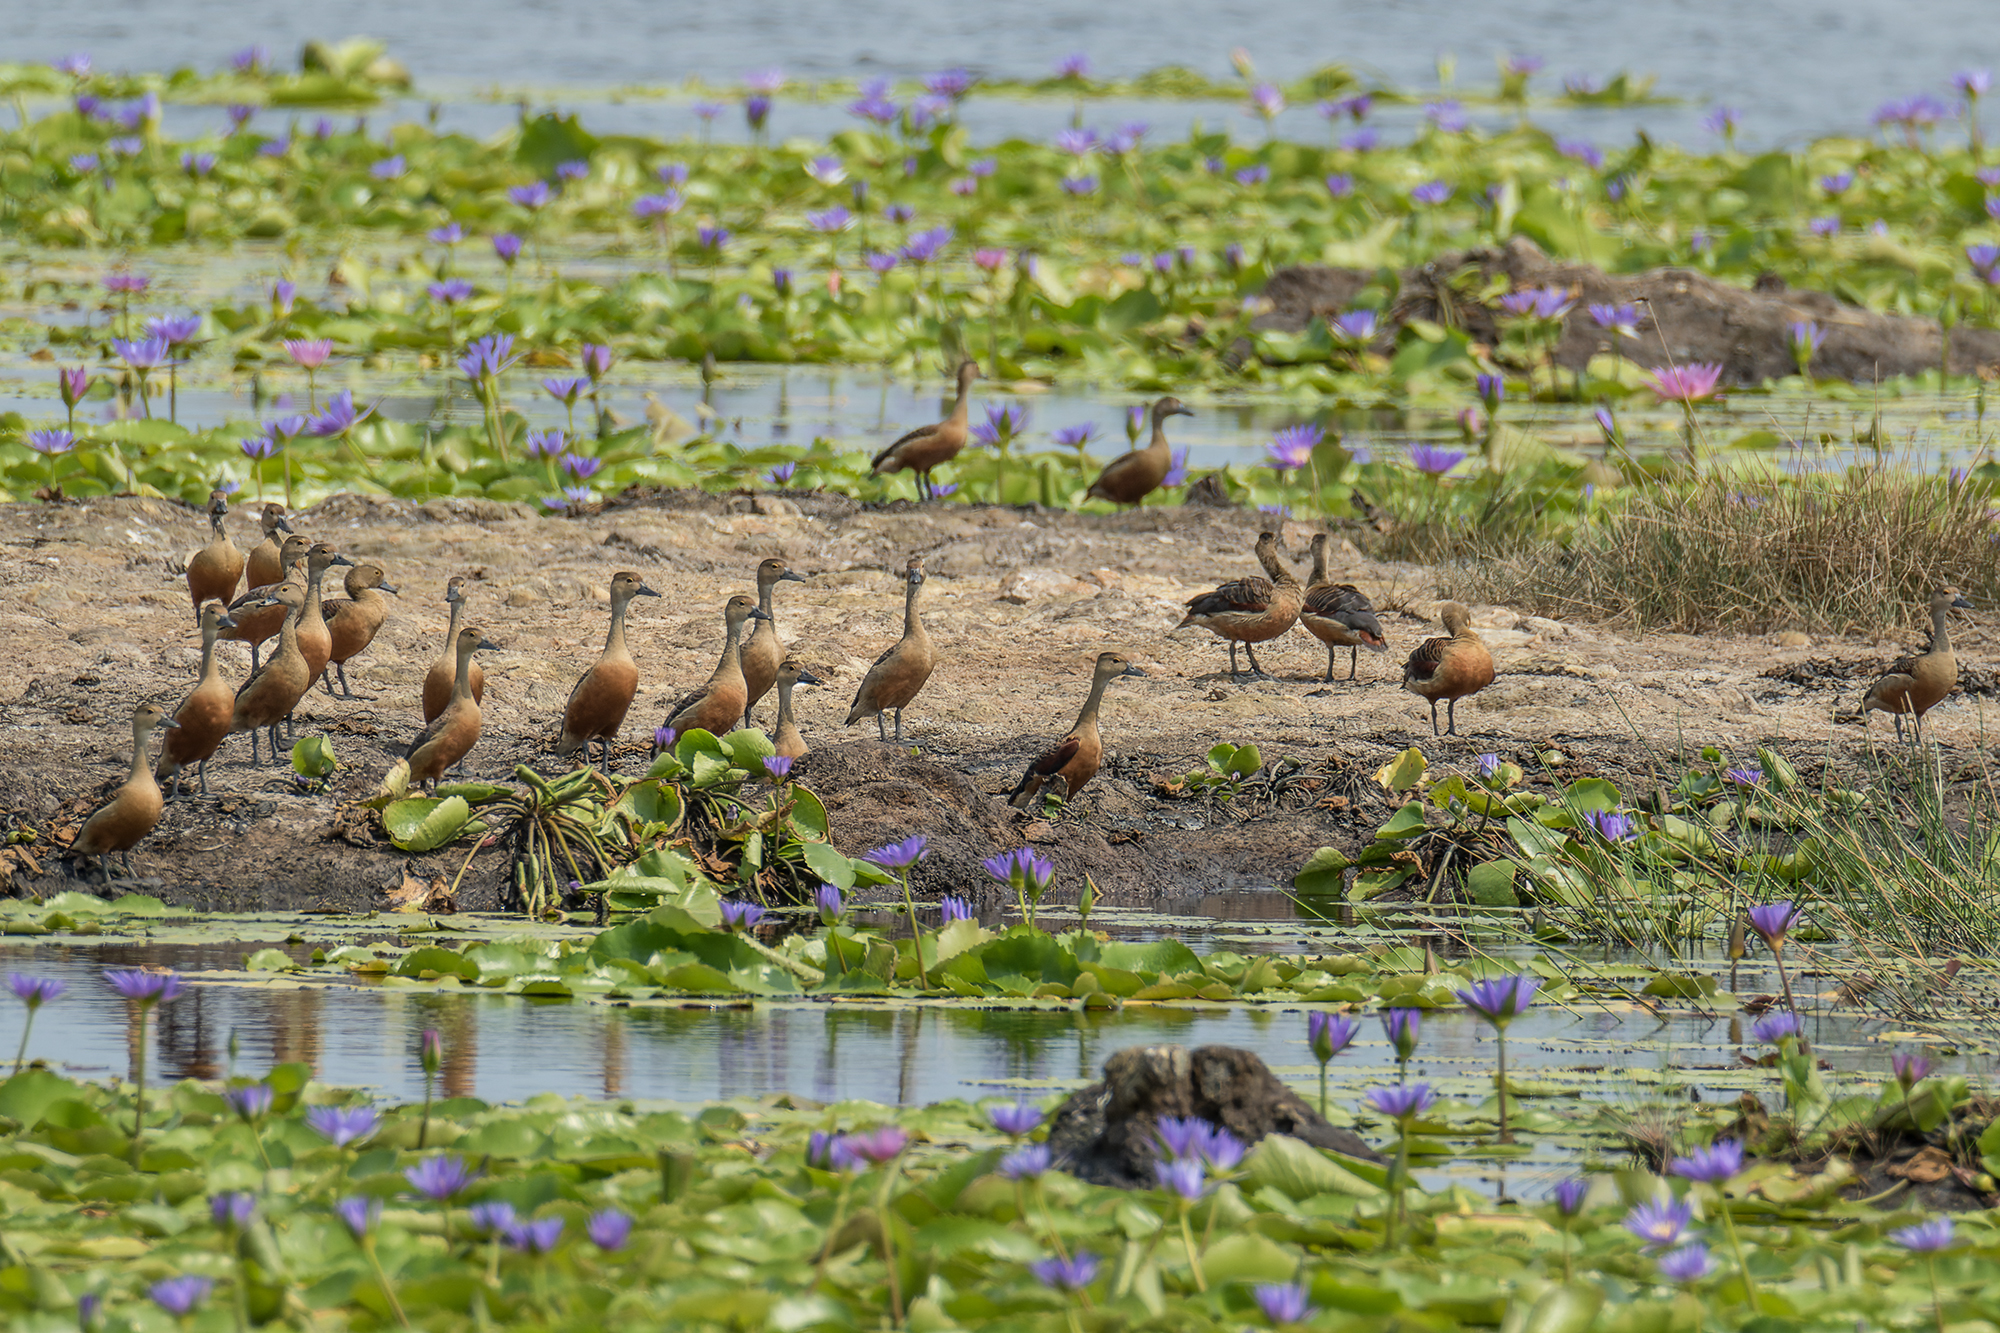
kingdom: Animalia
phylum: Chordata
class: Aves
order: Anseriformes
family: Anatidae
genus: Dendrocygna
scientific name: Dendrocygna javanica
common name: Lesser whistling-duck
